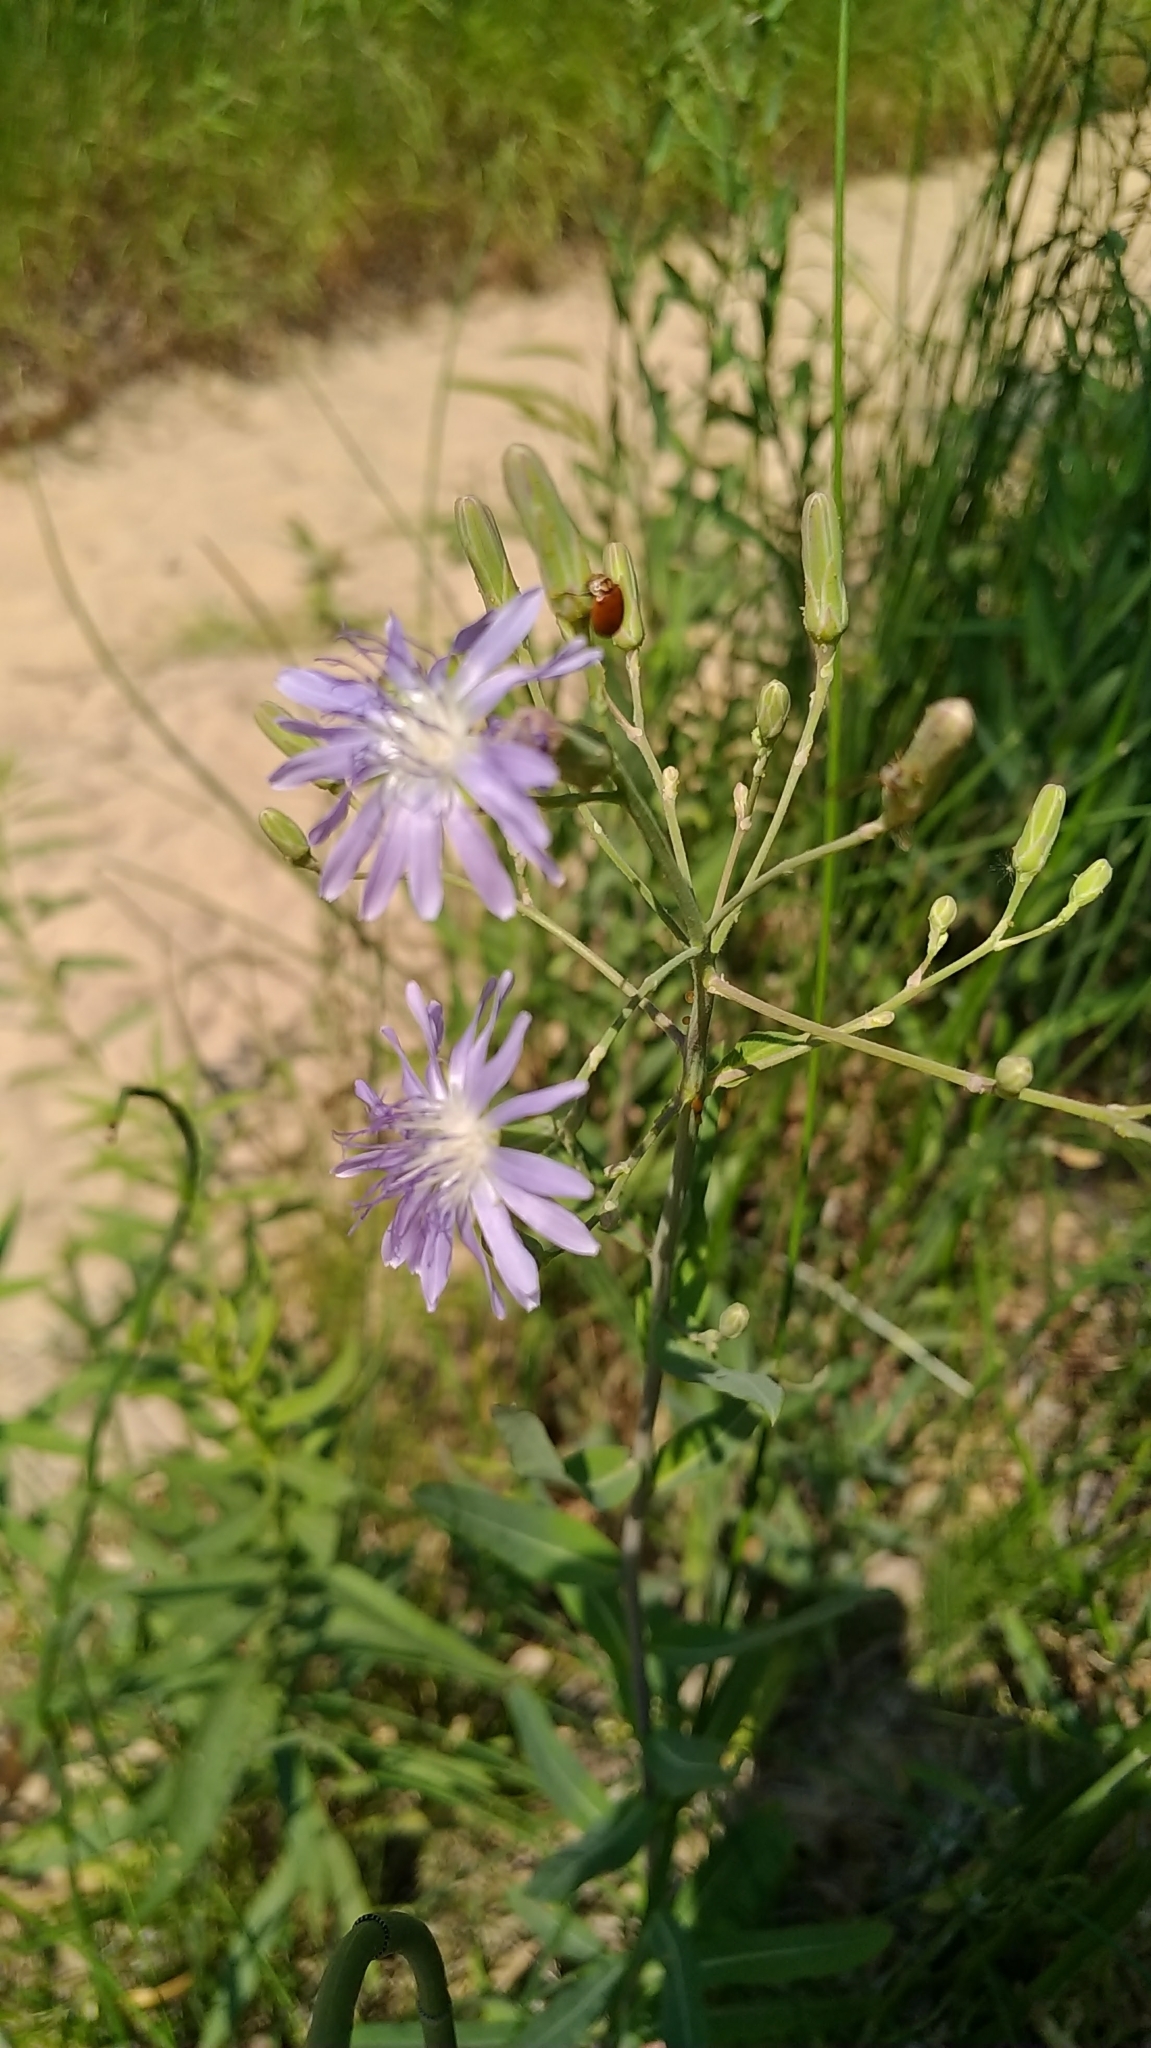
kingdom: Plantae
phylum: Tracheophyta
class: Magnoliopsida
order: Asterales
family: Asteraceae
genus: Lactuca
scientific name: Lactuca pulchella
